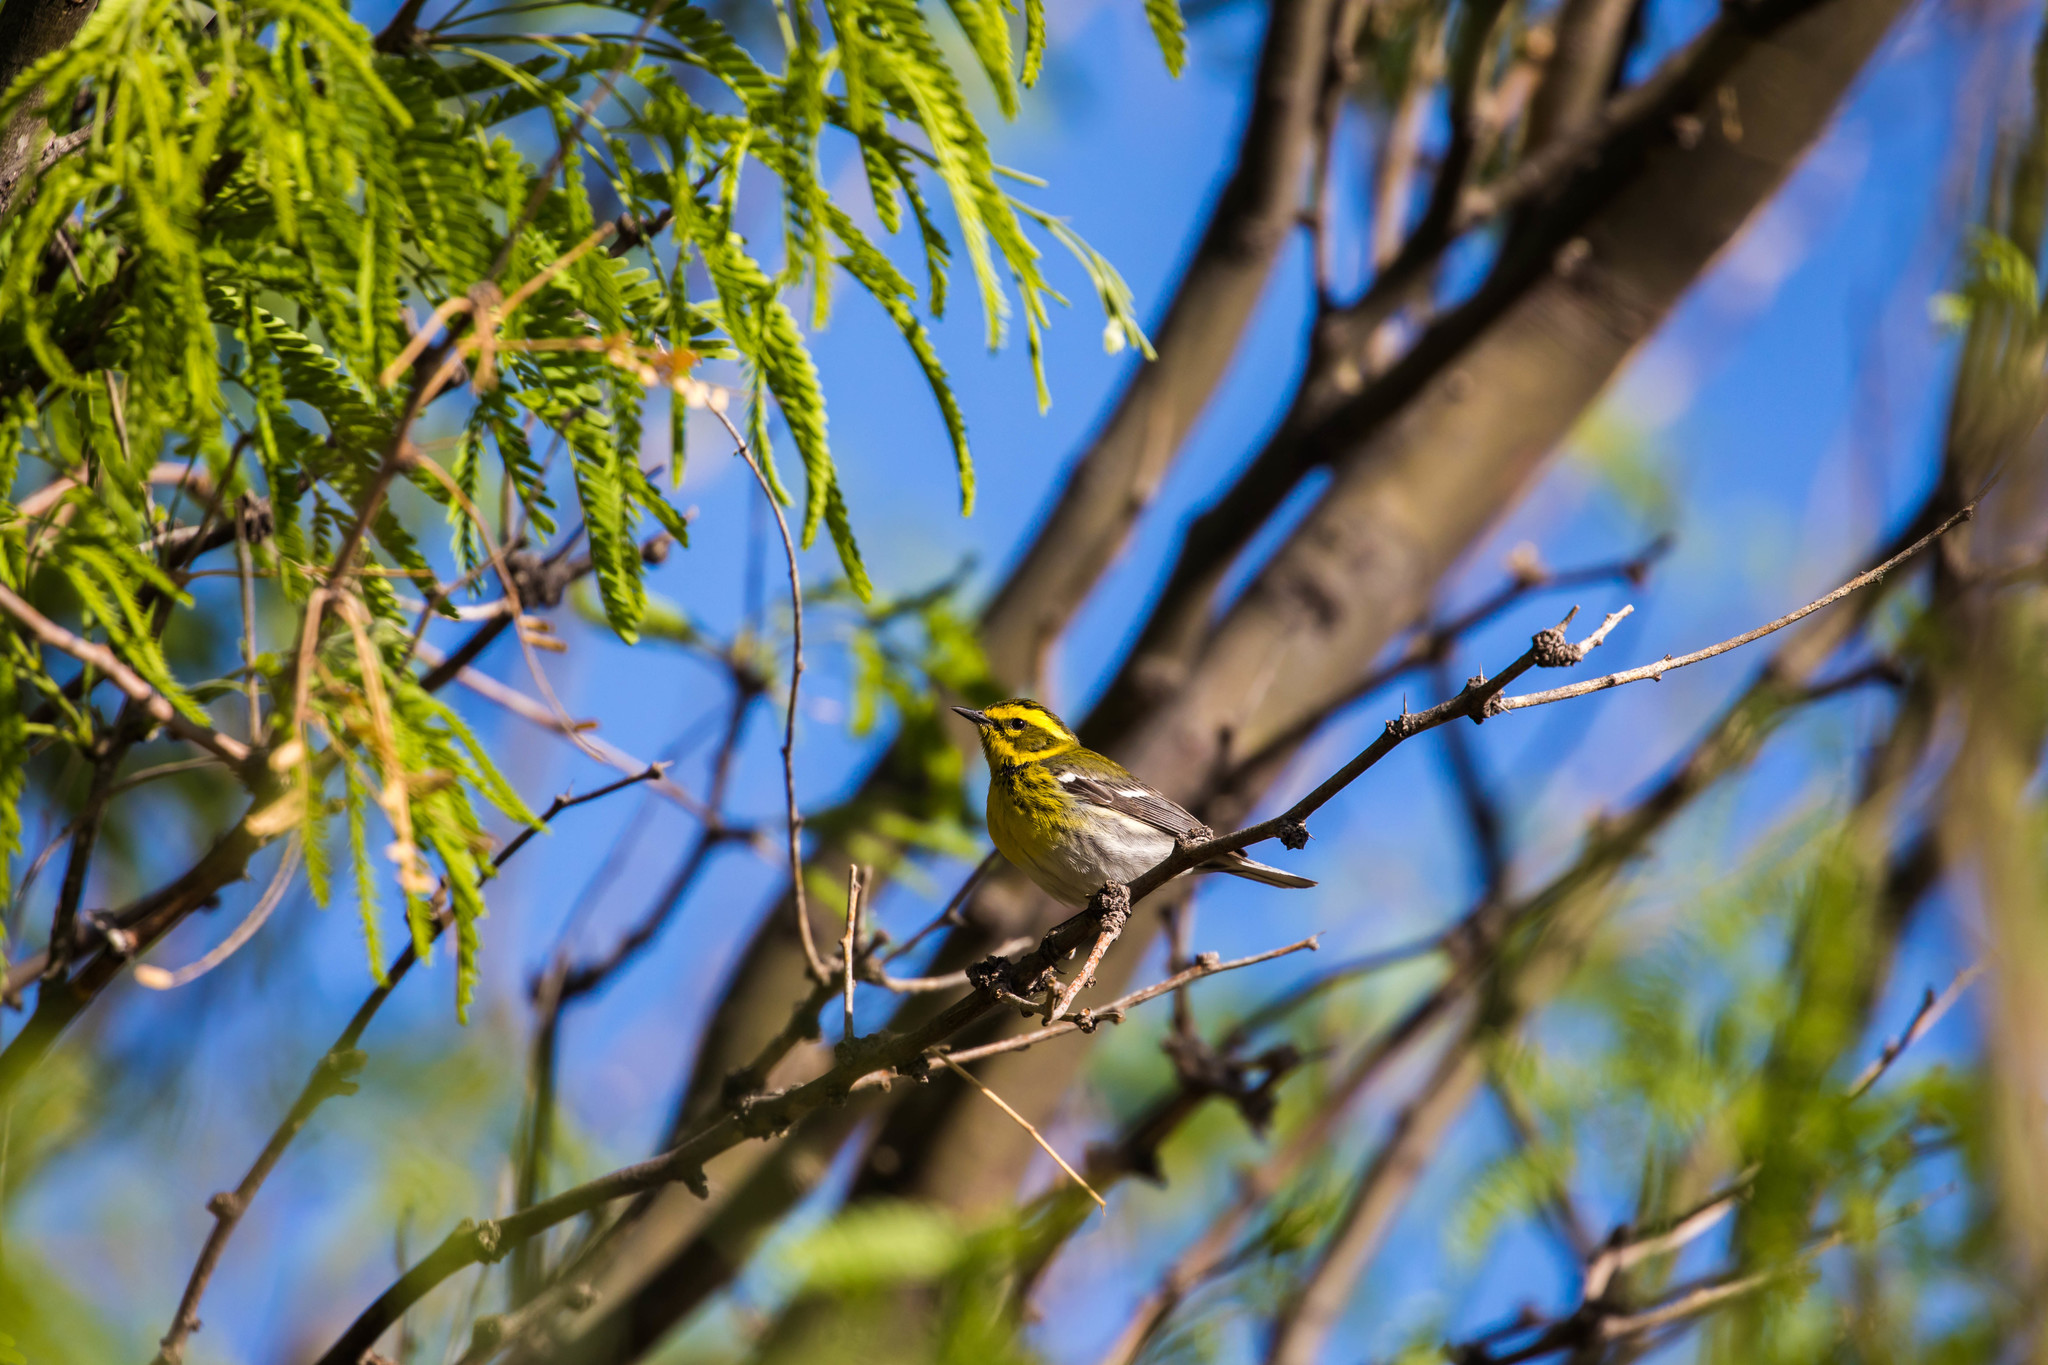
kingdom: Animalia
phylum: Chordata
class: Aves
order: Passeriformes
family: Parulidae
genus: Setophaga
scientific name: Setophaga townsendi
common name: Townsend's warbler
